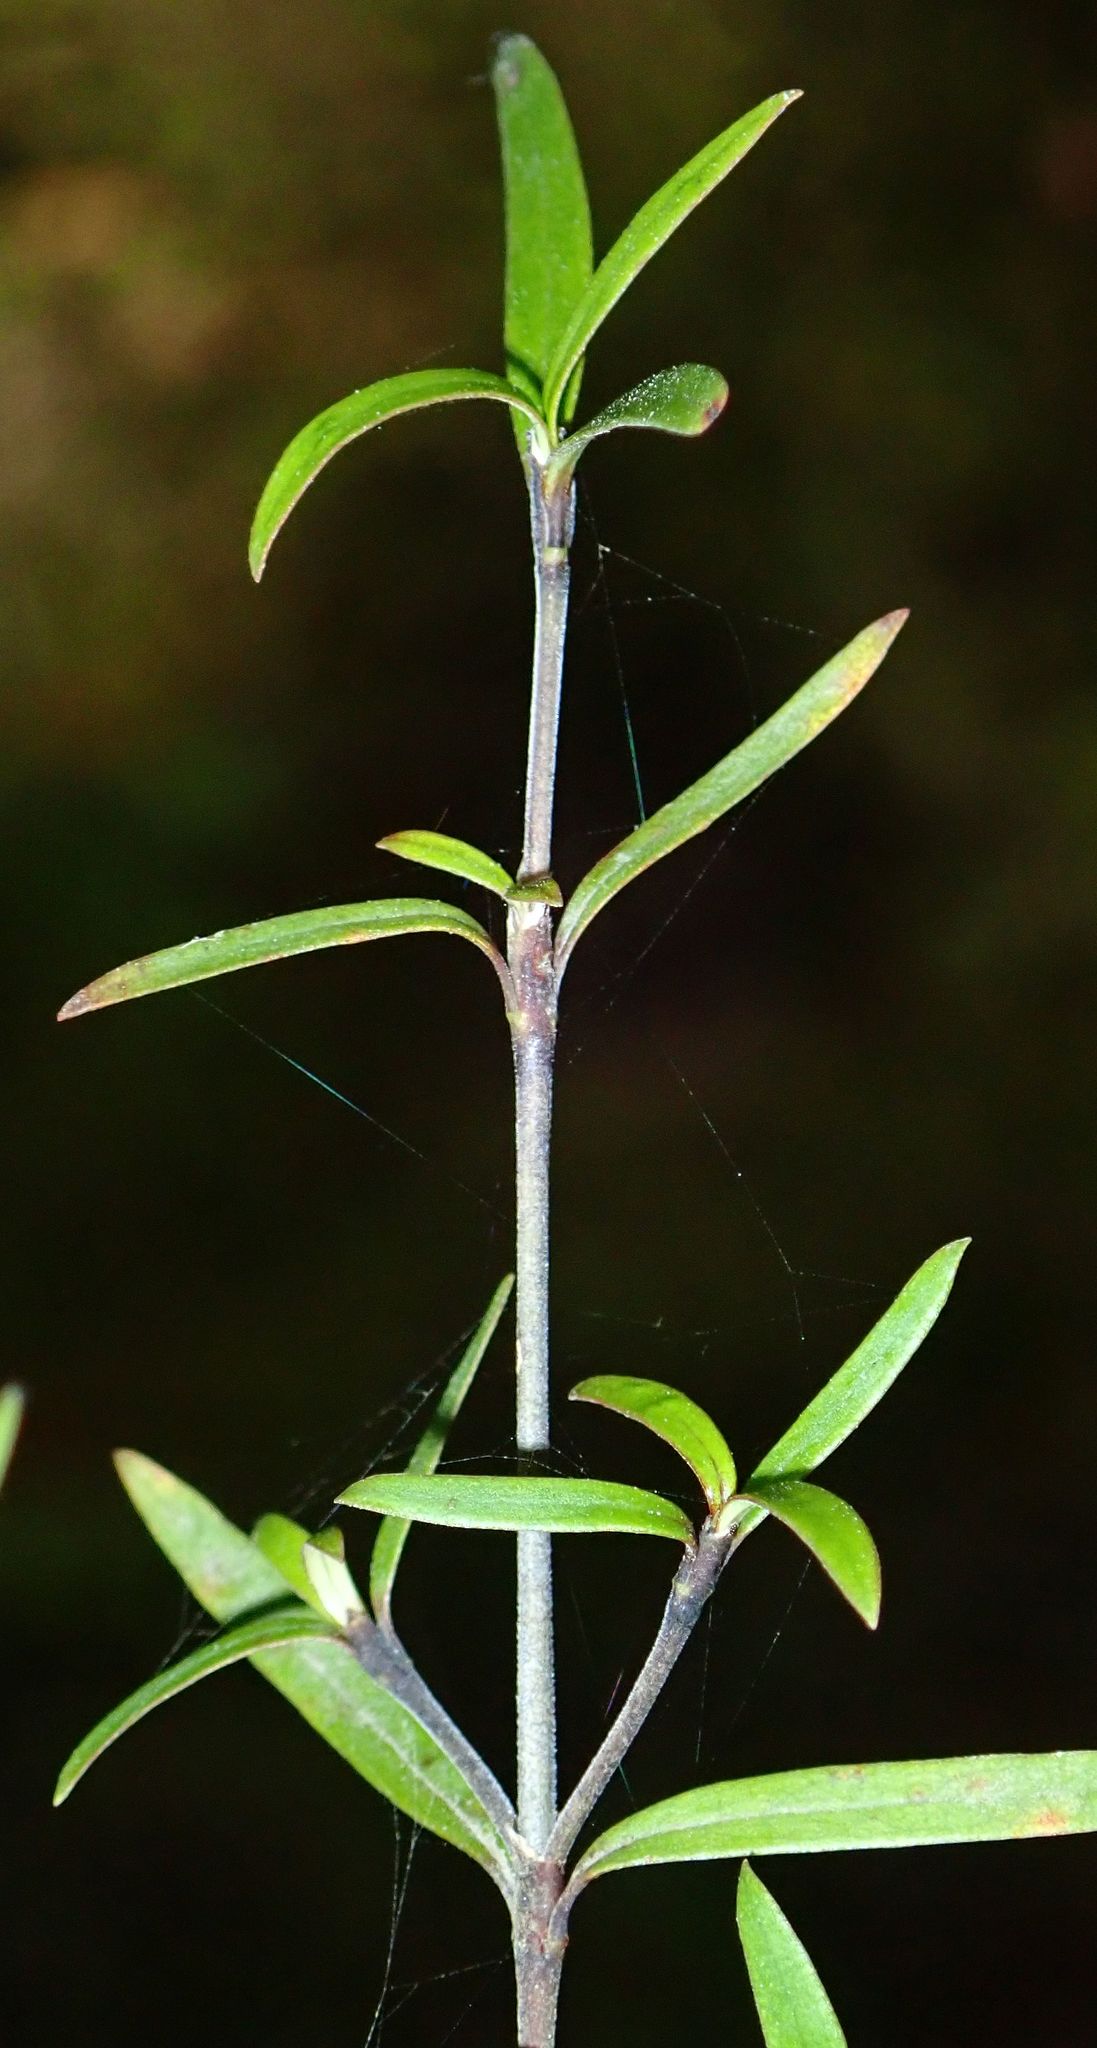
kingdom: Plantae
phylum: Tracheophyta
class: Magnoliopsida
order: Gentianales
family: Rubiaceae
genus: Coprosma
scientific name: Coprosma linariifolia
